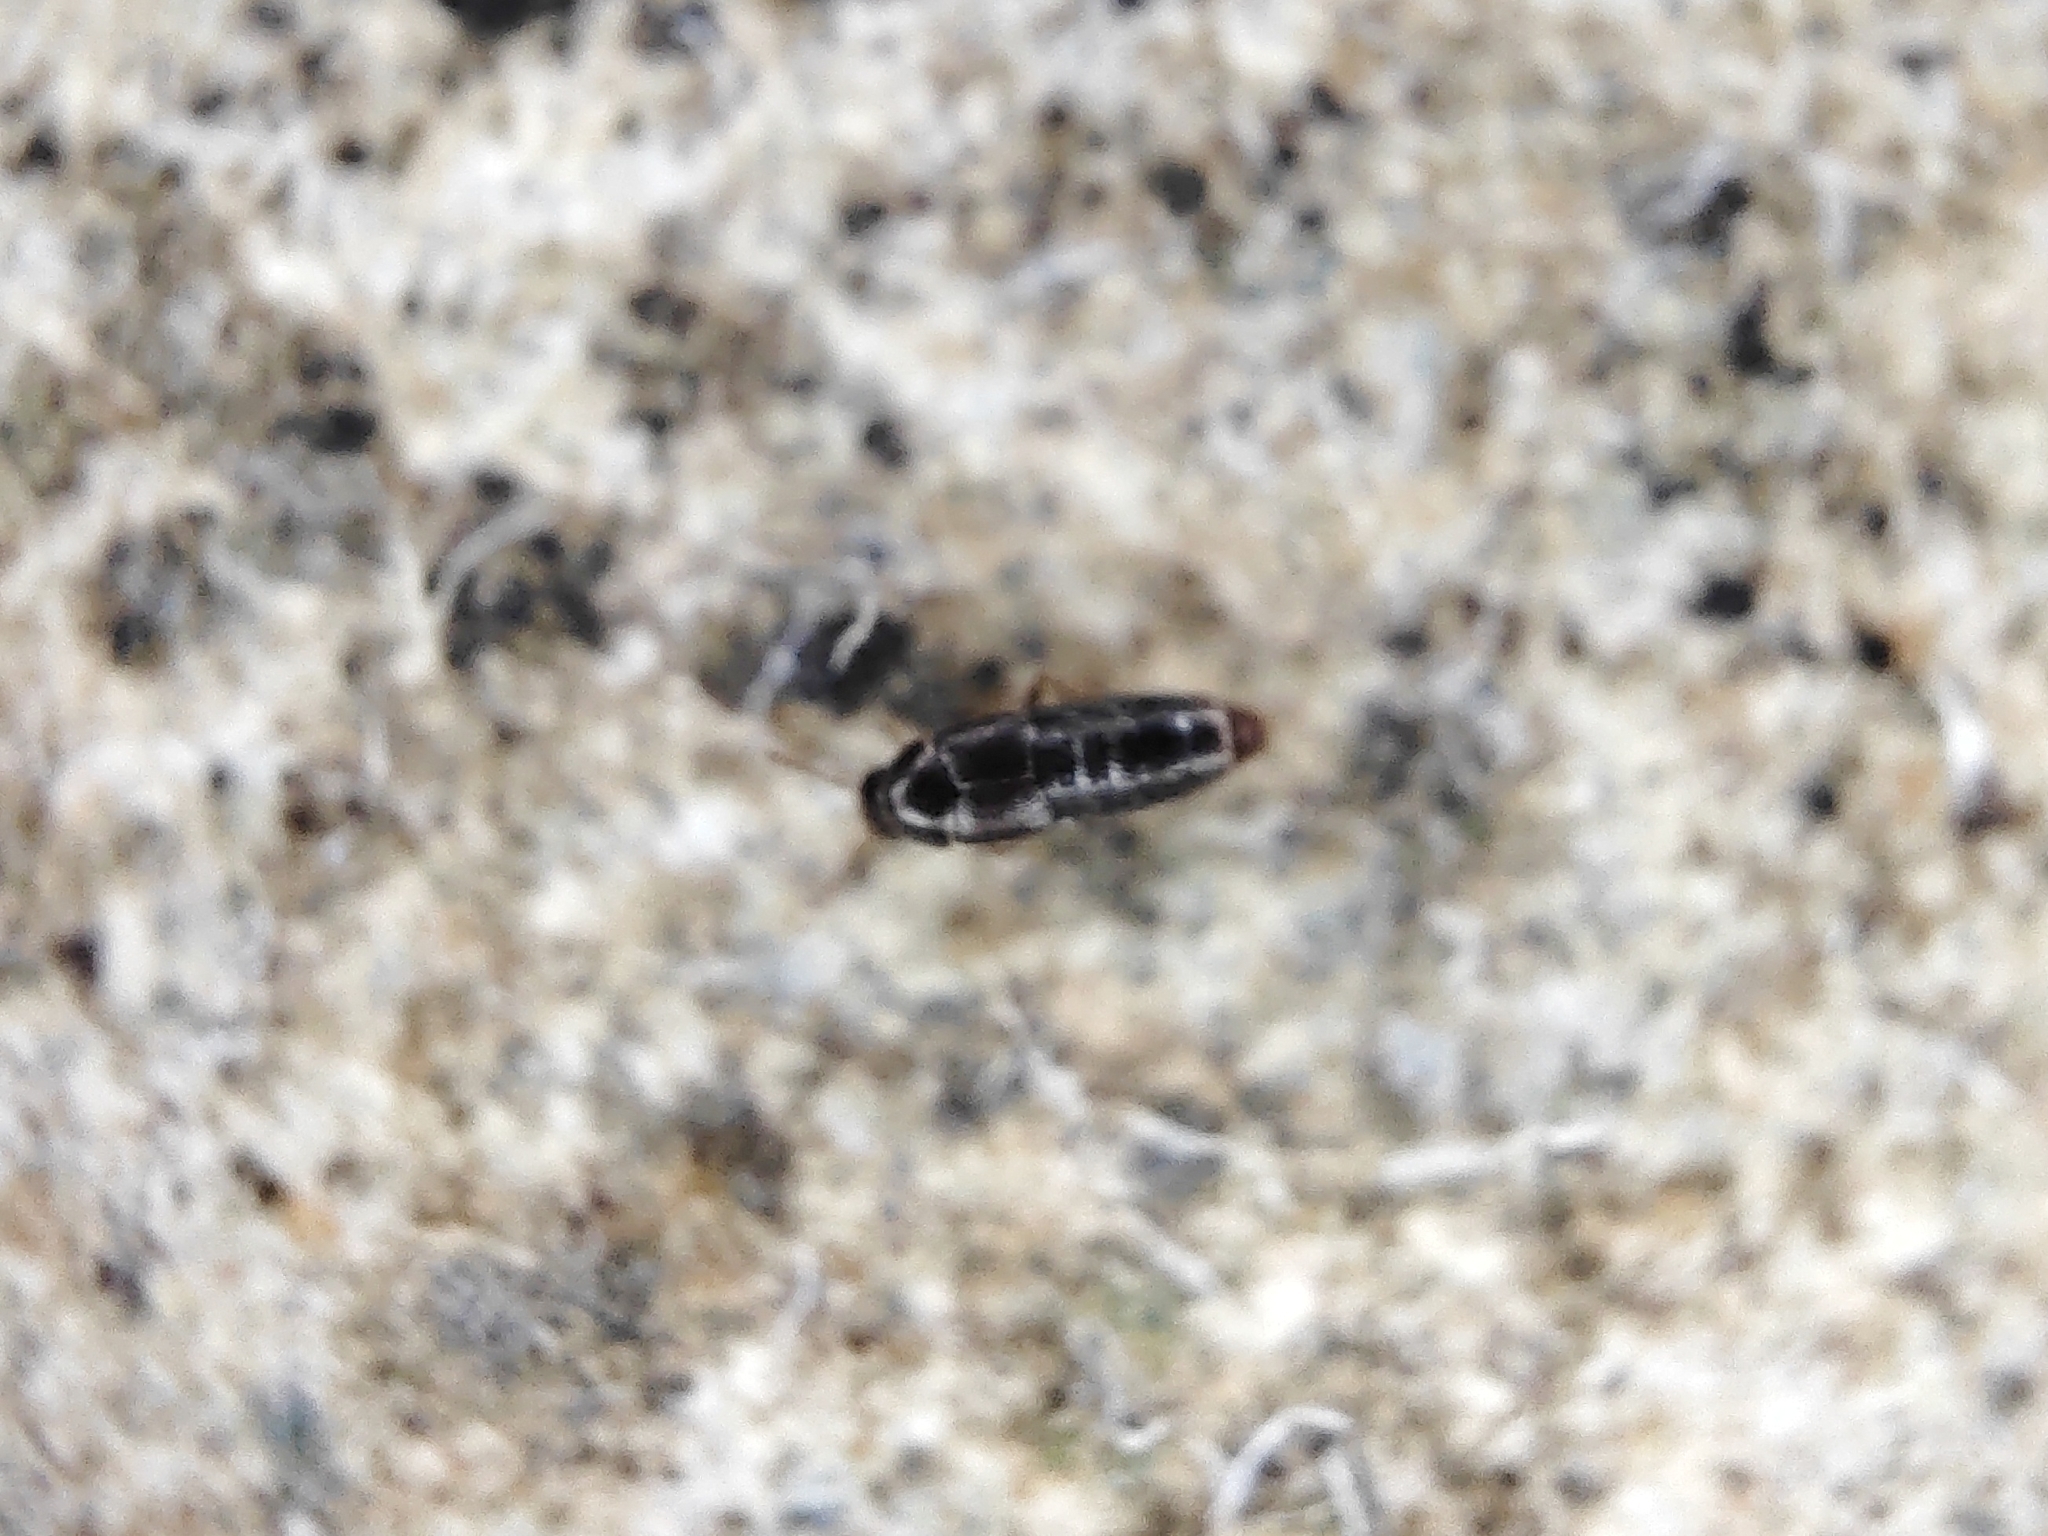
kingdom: Animalia
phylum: Arthropoda
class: Insecta
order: Coleoptera
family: Staphylinidae
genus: Oligota
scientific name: Oligota
